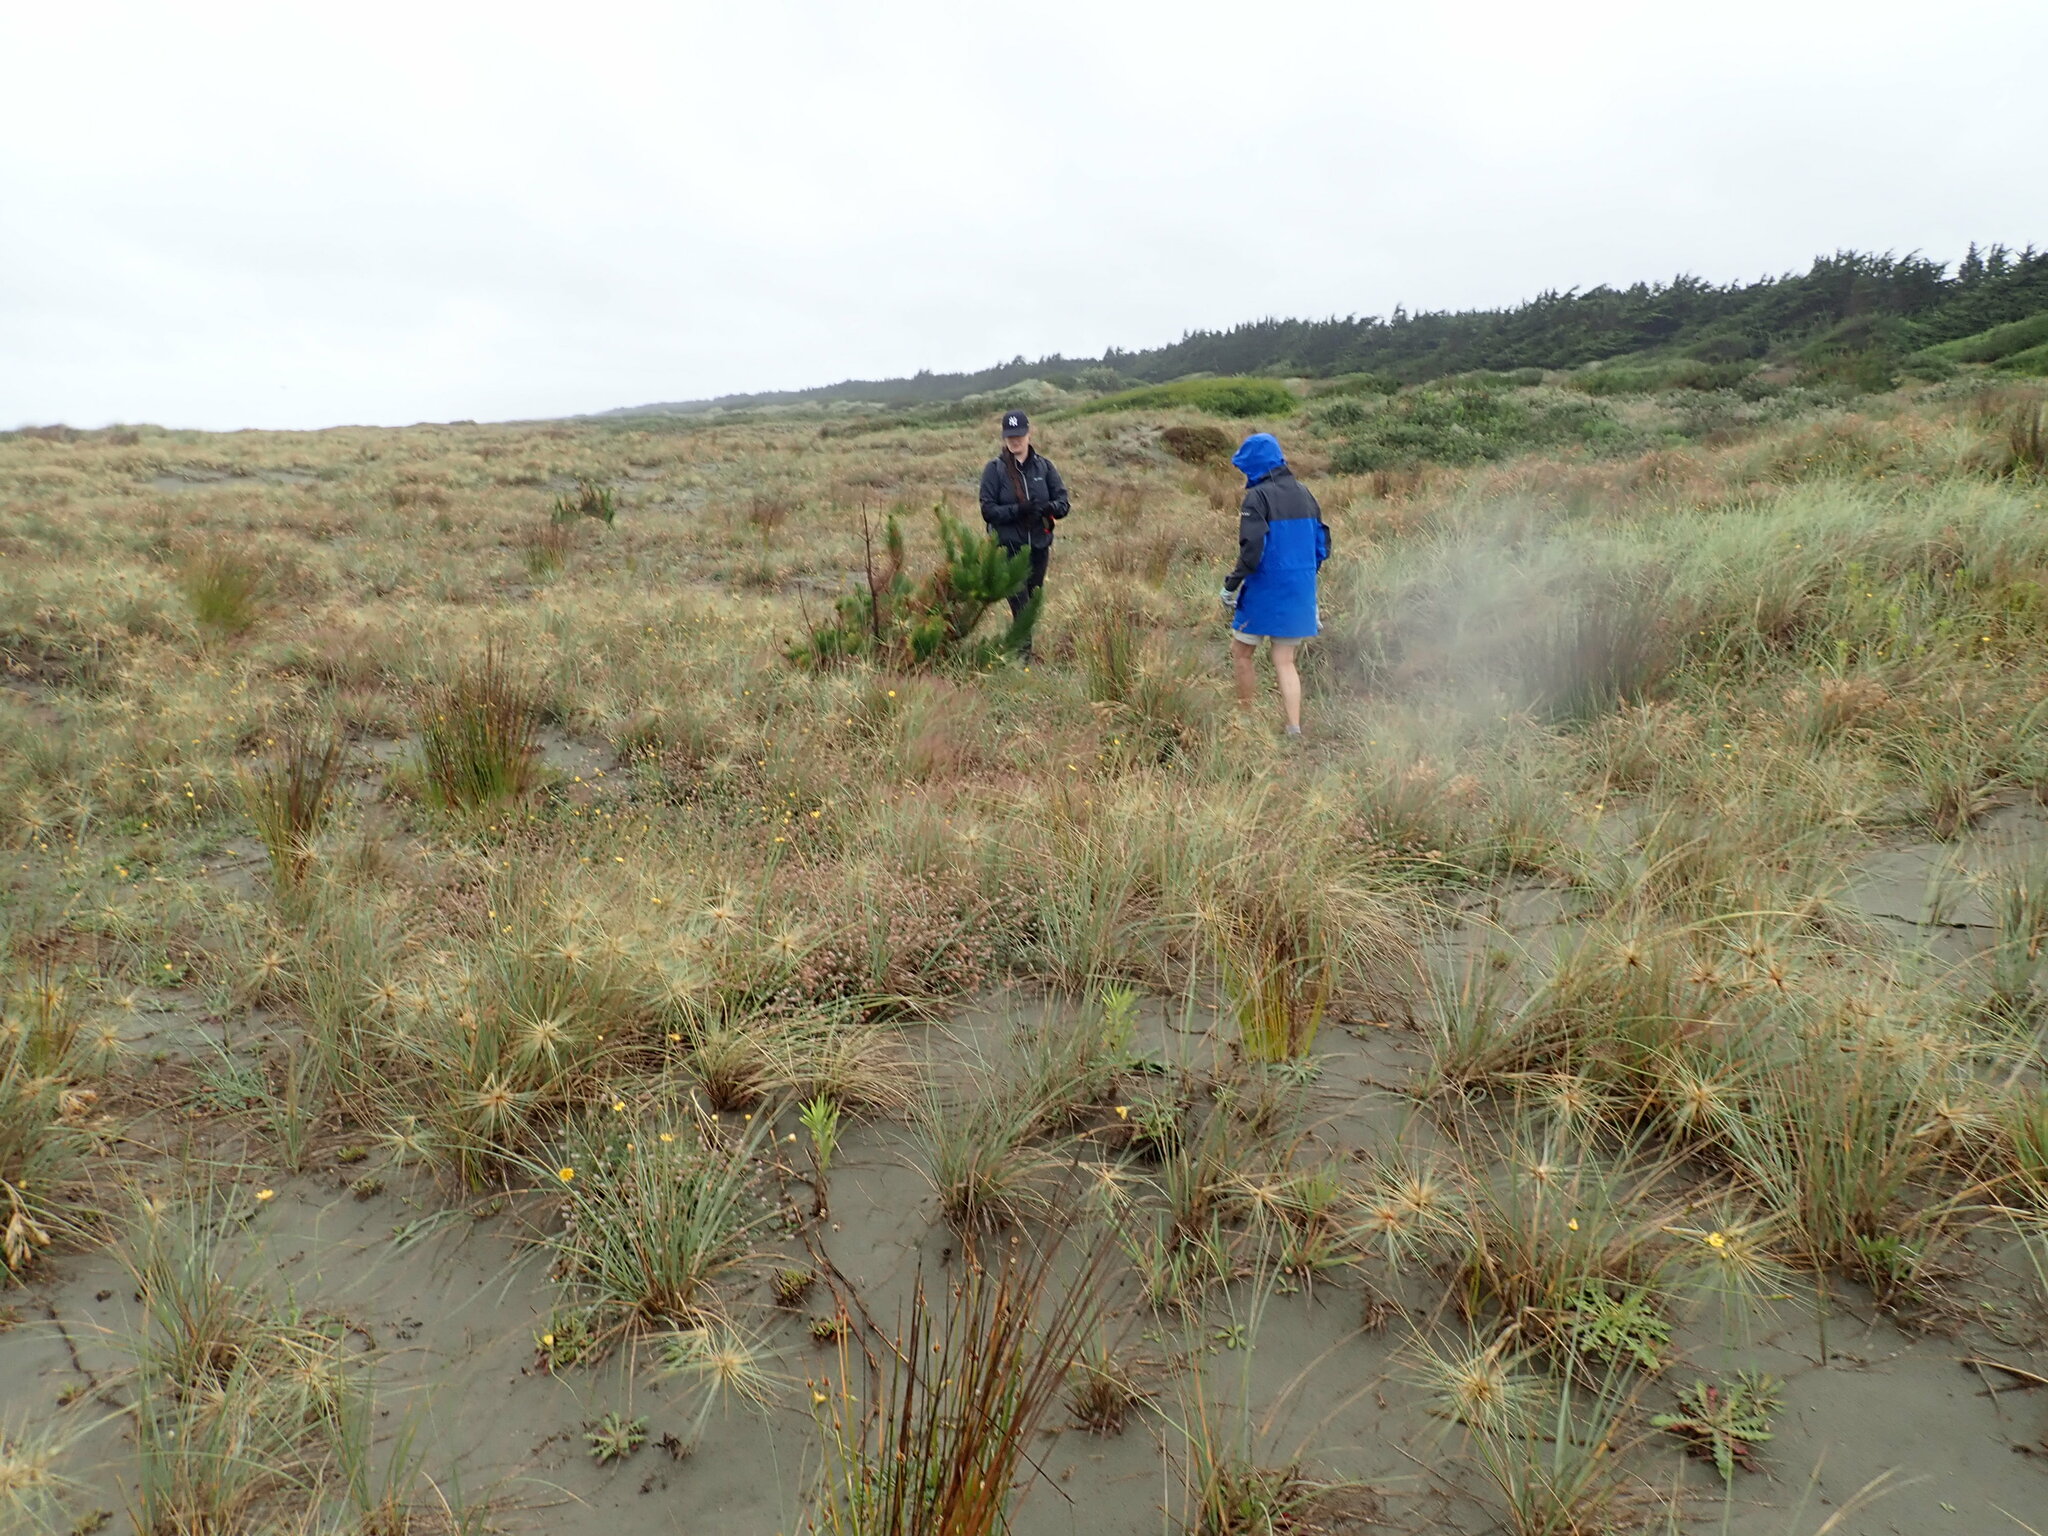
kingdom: Plantae
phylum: Tracheophyta
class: Pinopsida
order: Pinales
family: Pinaceae
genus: Pinus
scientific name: Pinus radiata
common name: Monterey pine
